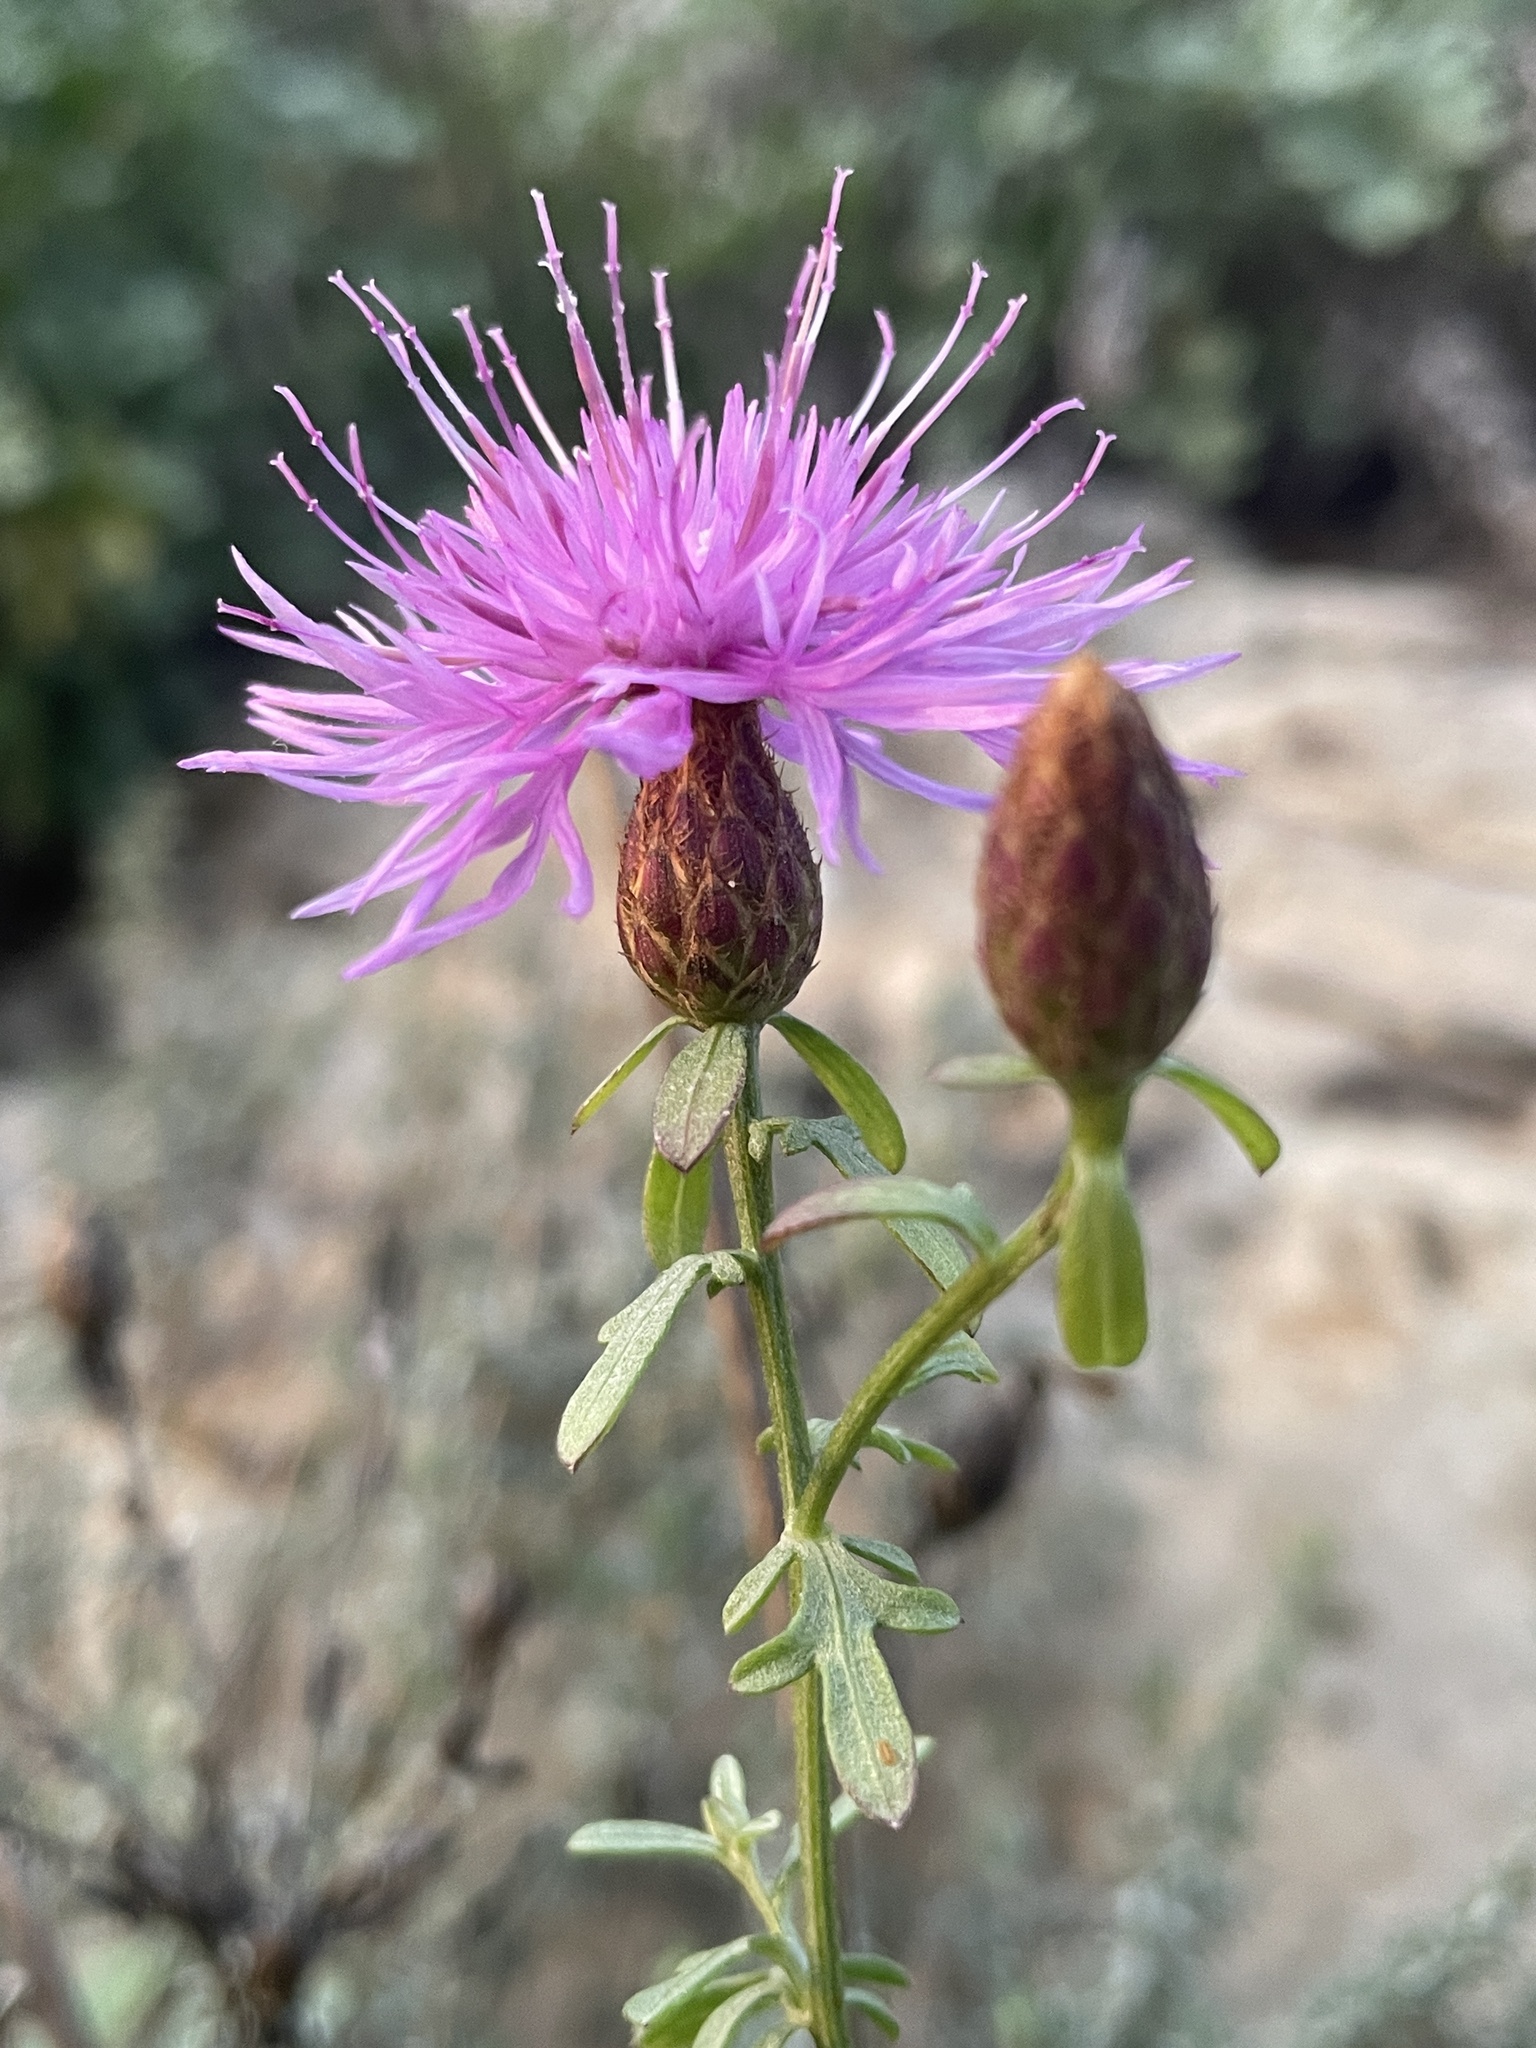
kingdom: Plantae
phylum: Tracheophyta
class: Magnoliopsida
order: Asterales
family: Asteraceae
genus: Centaurea
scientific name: Centaurea aplolepa
